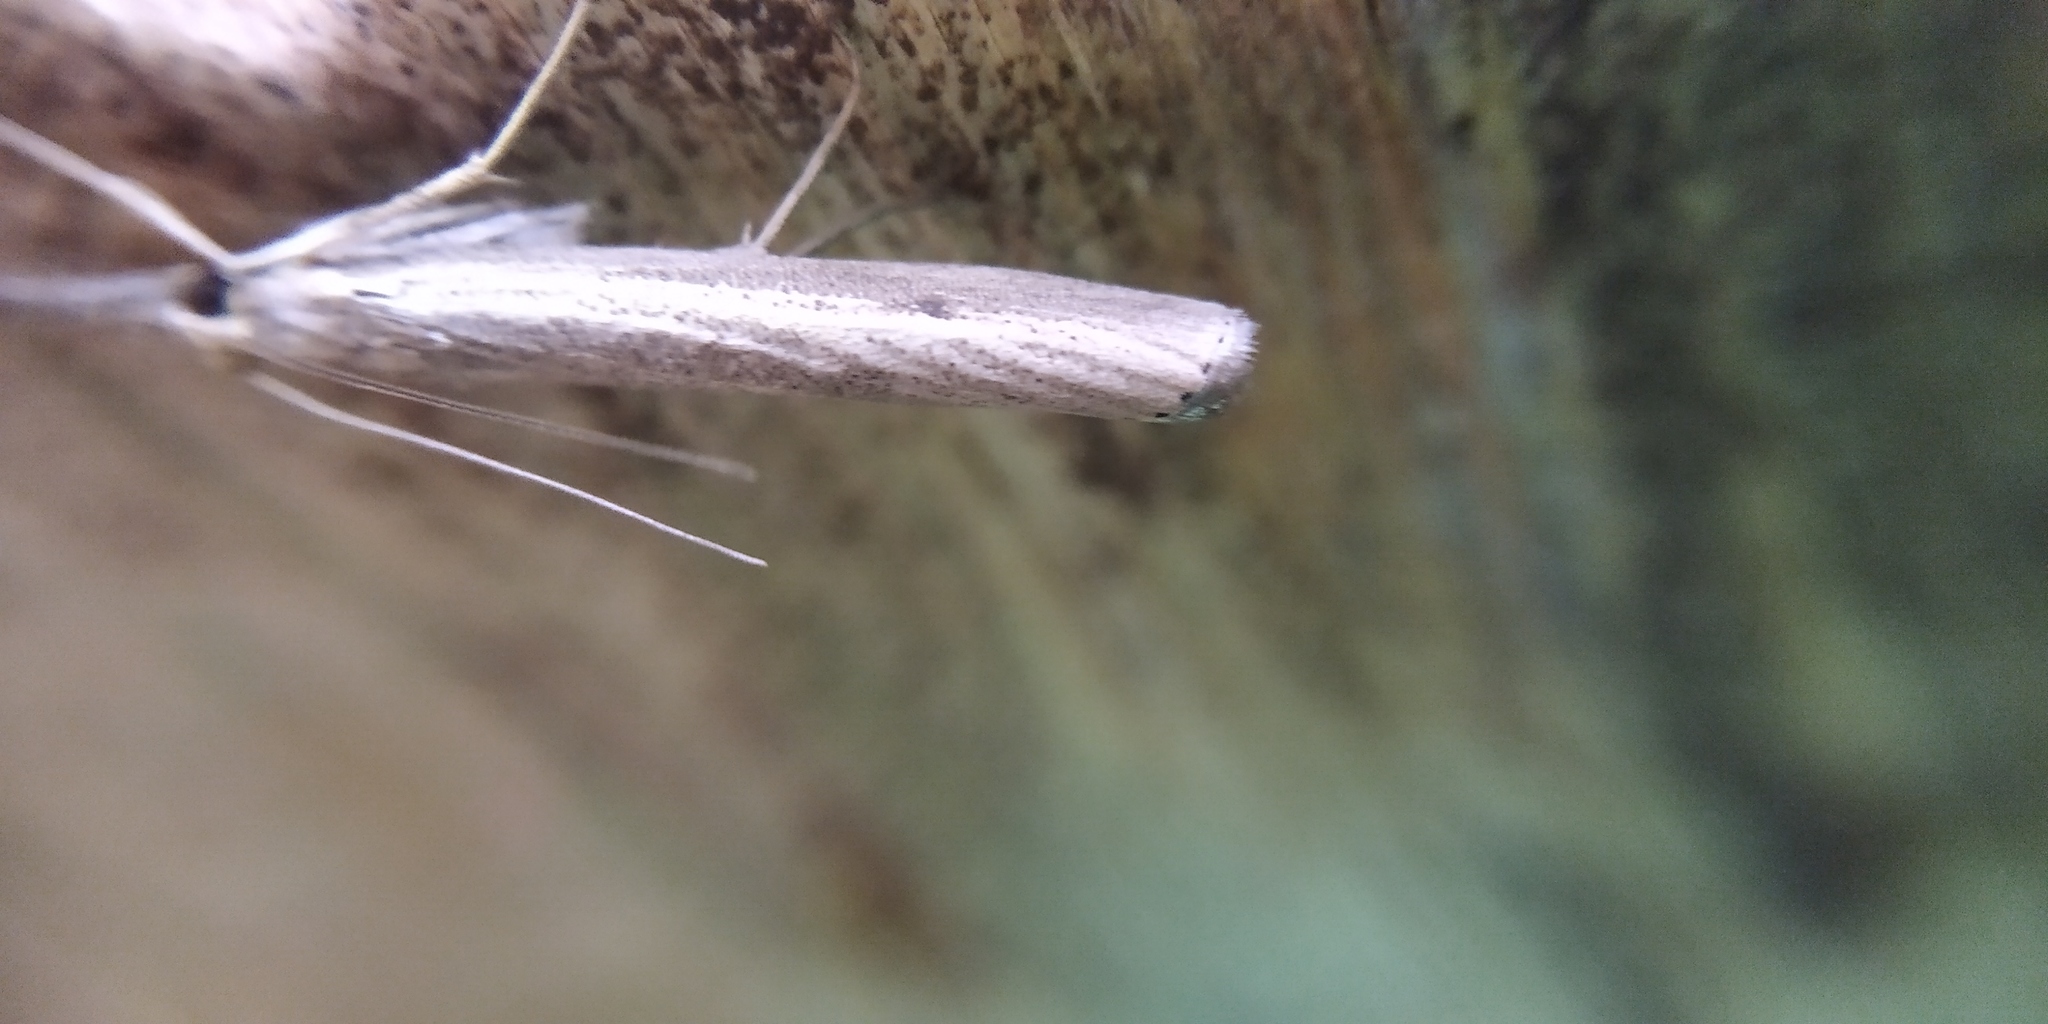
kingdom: Animalia
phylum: Arthropoda
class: Insecta
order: Lepidoptera
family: Crambidae
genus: Agriphila
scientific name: Agriphila poliellus
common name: Grey grass-veneer
